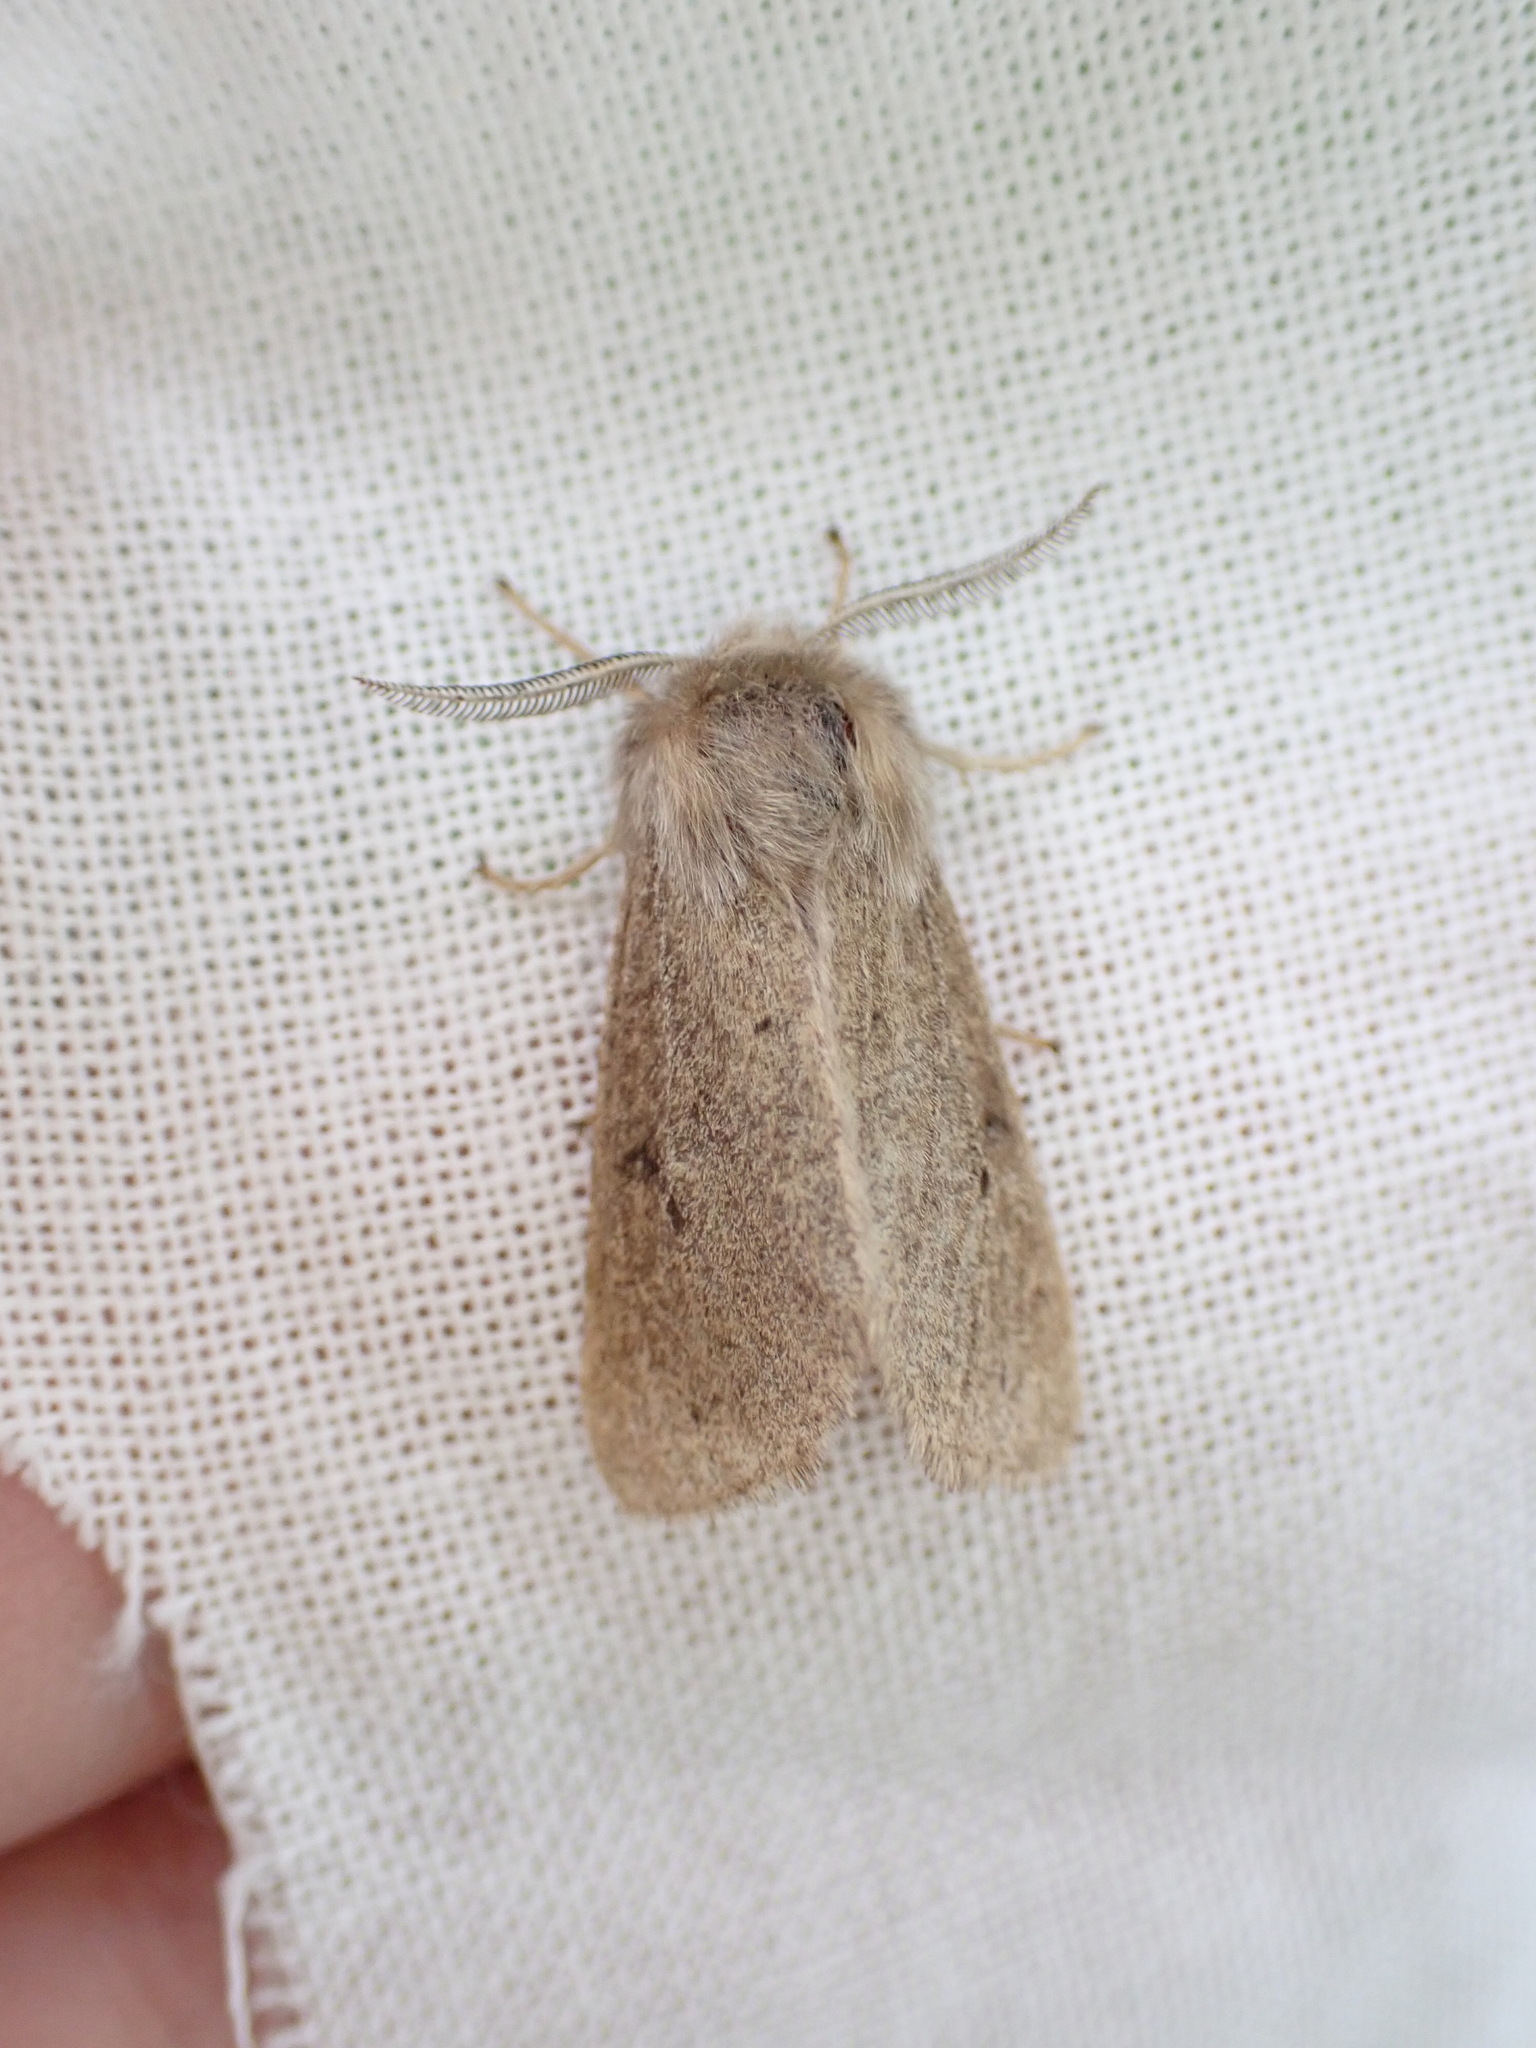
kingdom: Animalia
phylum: Arthropoda
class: Insecta
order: Lepidoptera
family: Erebidae
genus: Spilosoma
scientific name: Spilosoma vagans
